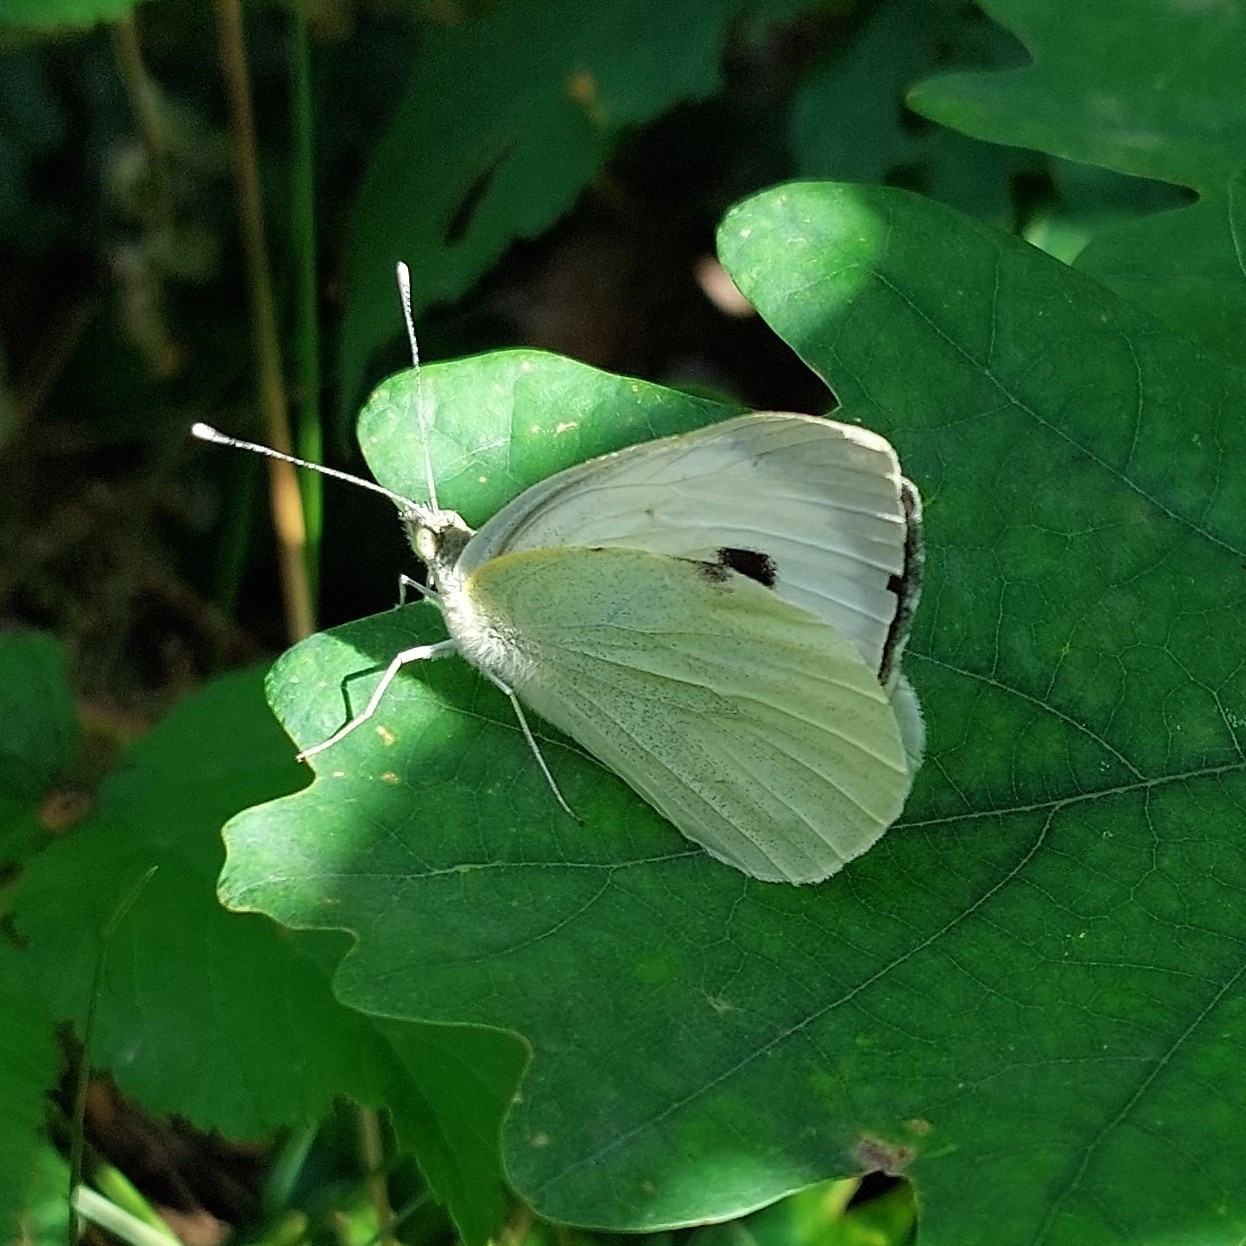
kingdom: Animalia
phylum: Arthropoda
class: Insecta
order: Lepidoptera
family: Pieridae
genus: Pieris
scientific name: Pieris brassicae
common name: Large white
